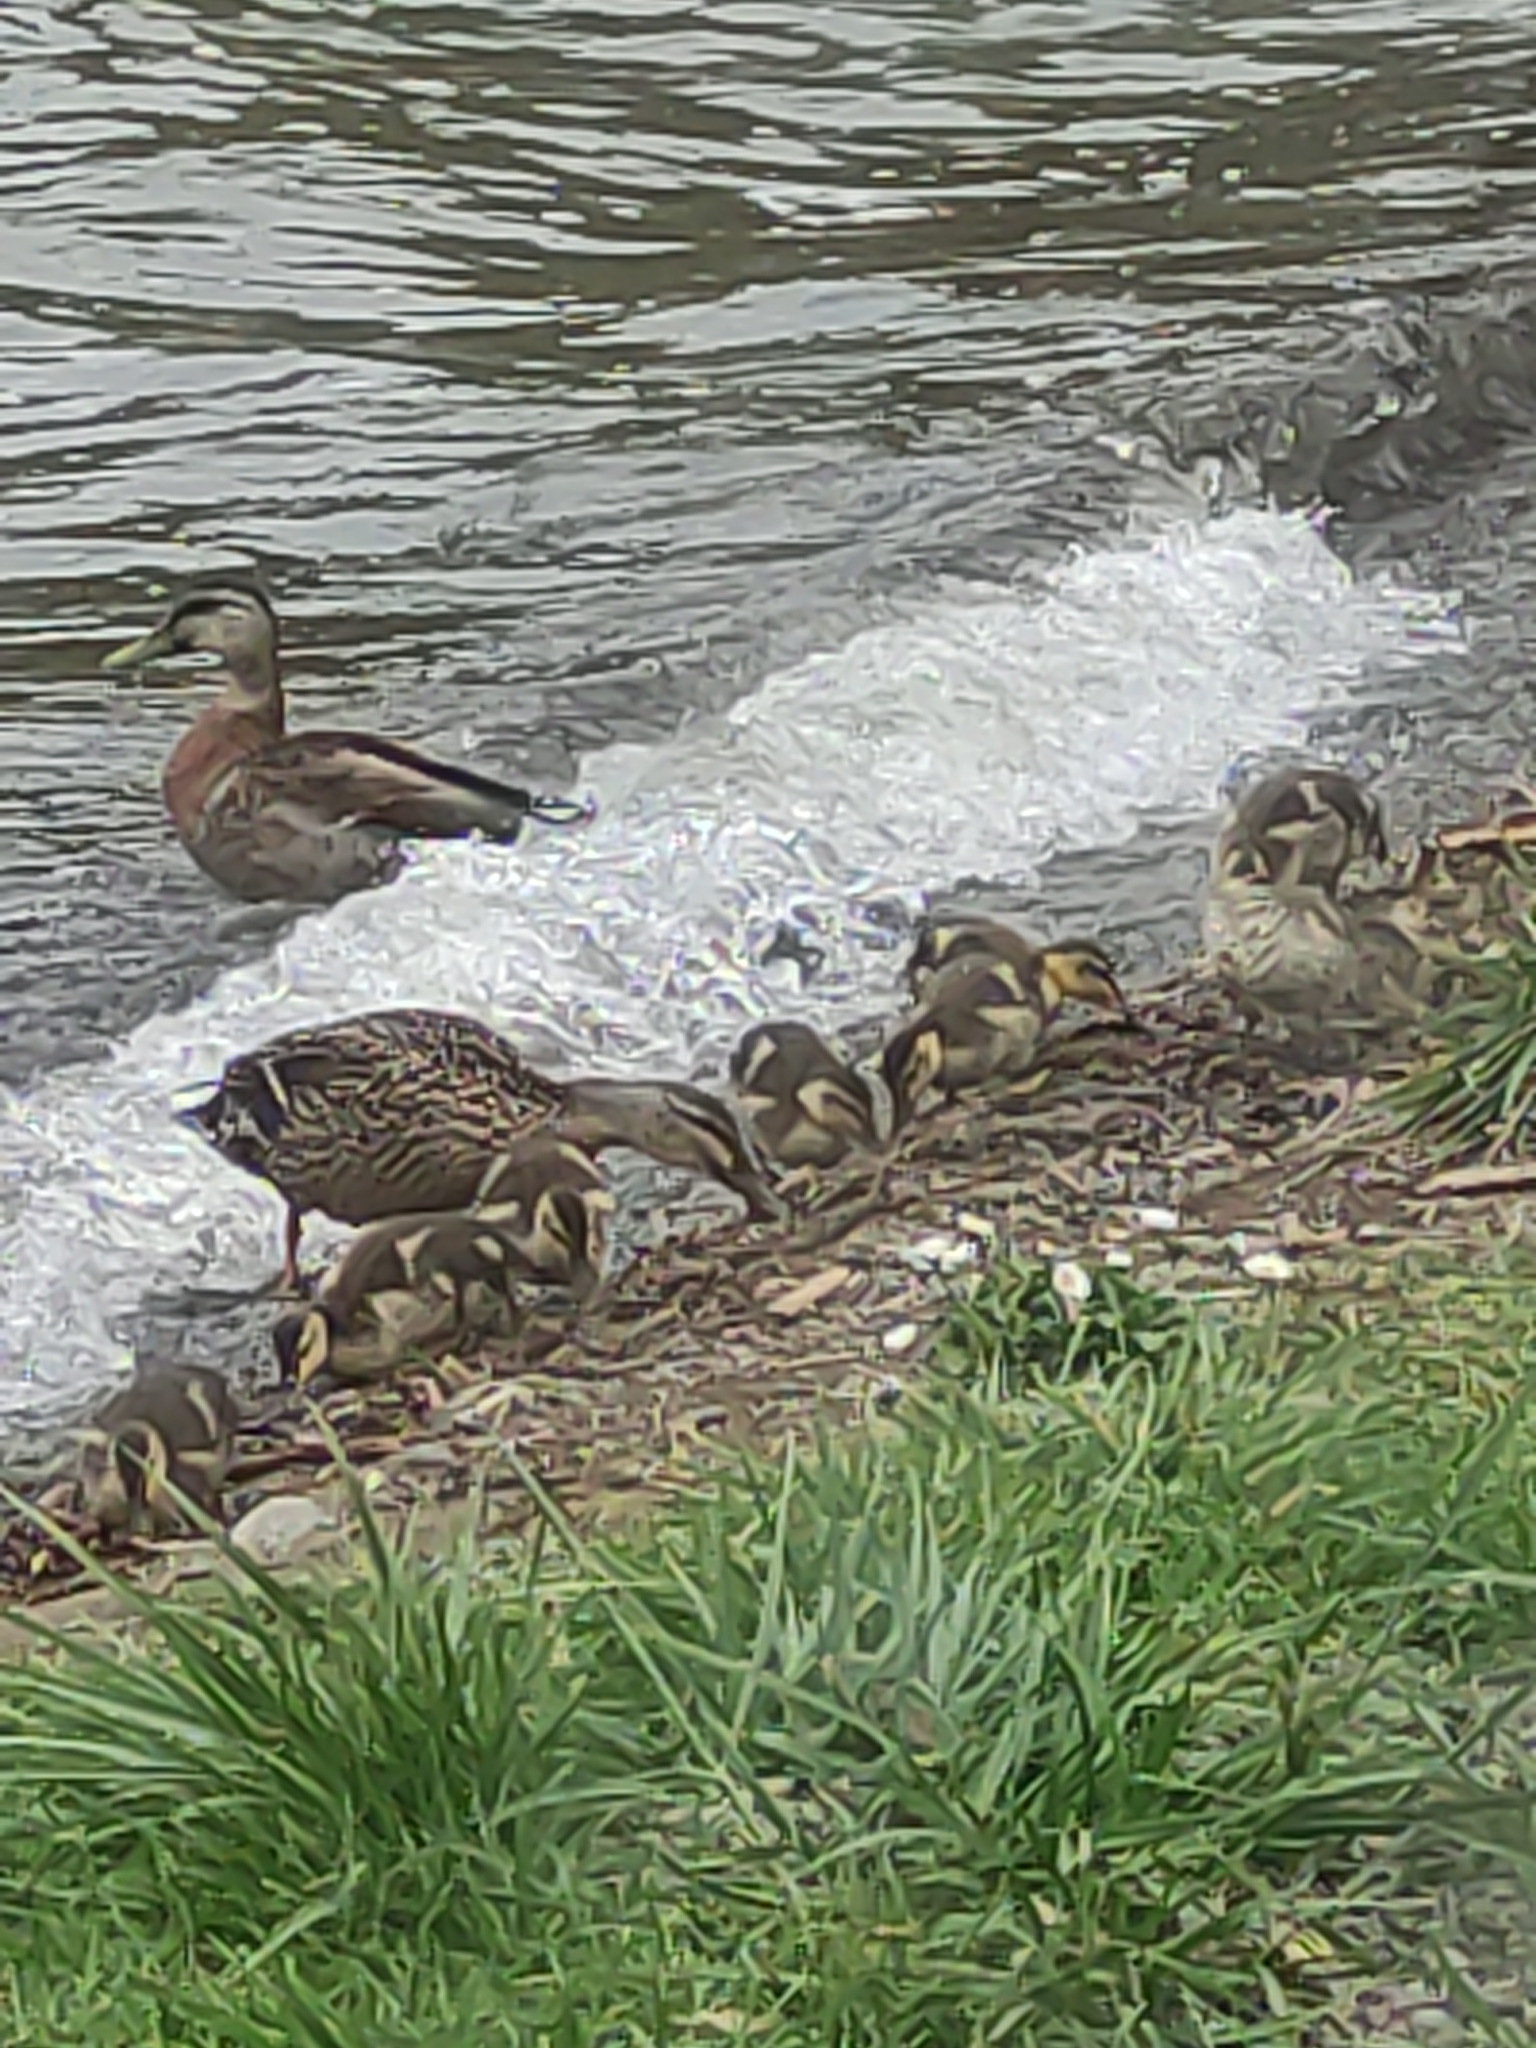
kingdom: Animalia
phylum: Chordata
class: Aves
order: Anseriformes
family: Anatidae
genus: Anas
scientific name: Anas
